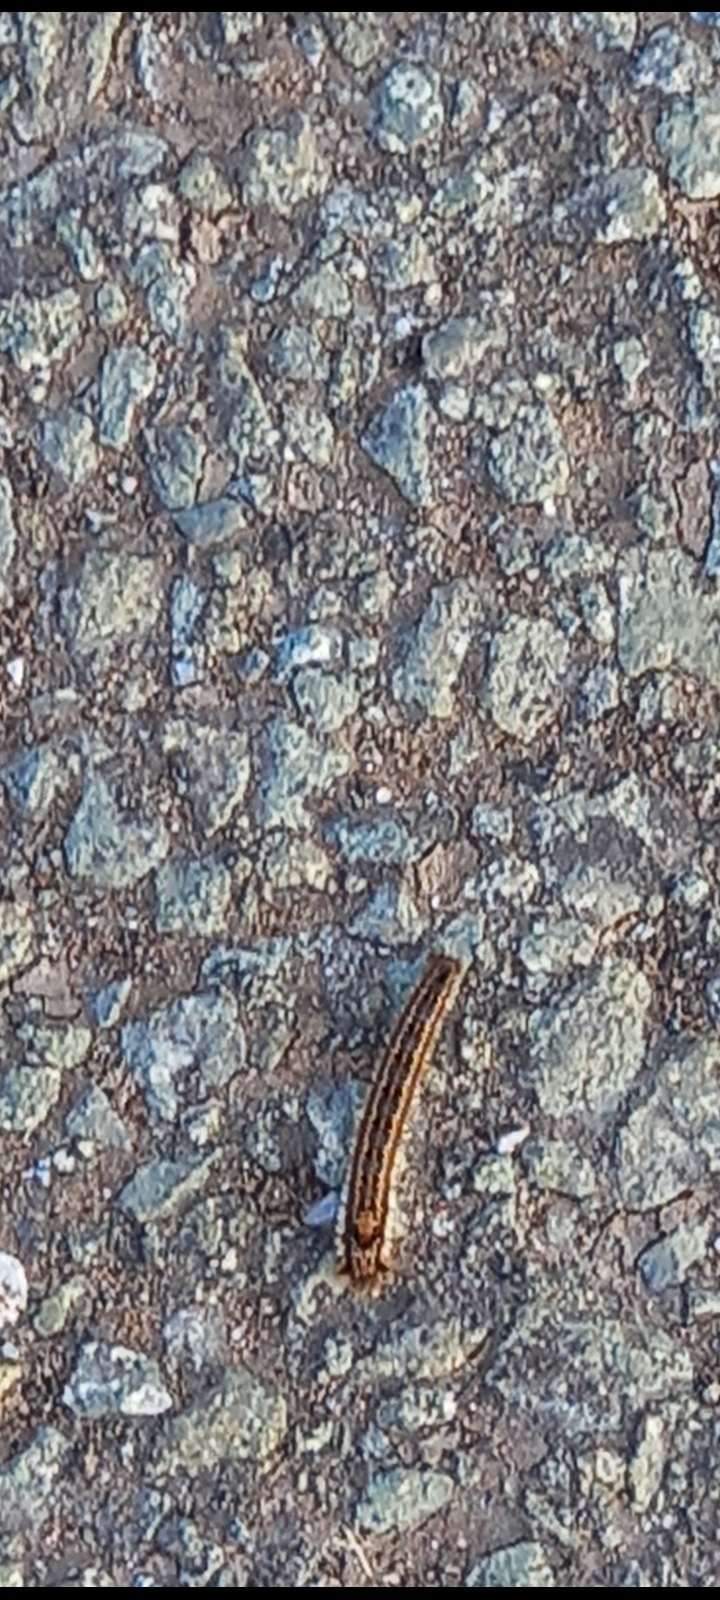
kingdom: Animalia
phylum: Arthropoda
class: Insecta
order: Lepidoptera
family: Lasiocampidae
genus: Euthrix
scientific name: Euthrix potatoria
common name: Drinker
